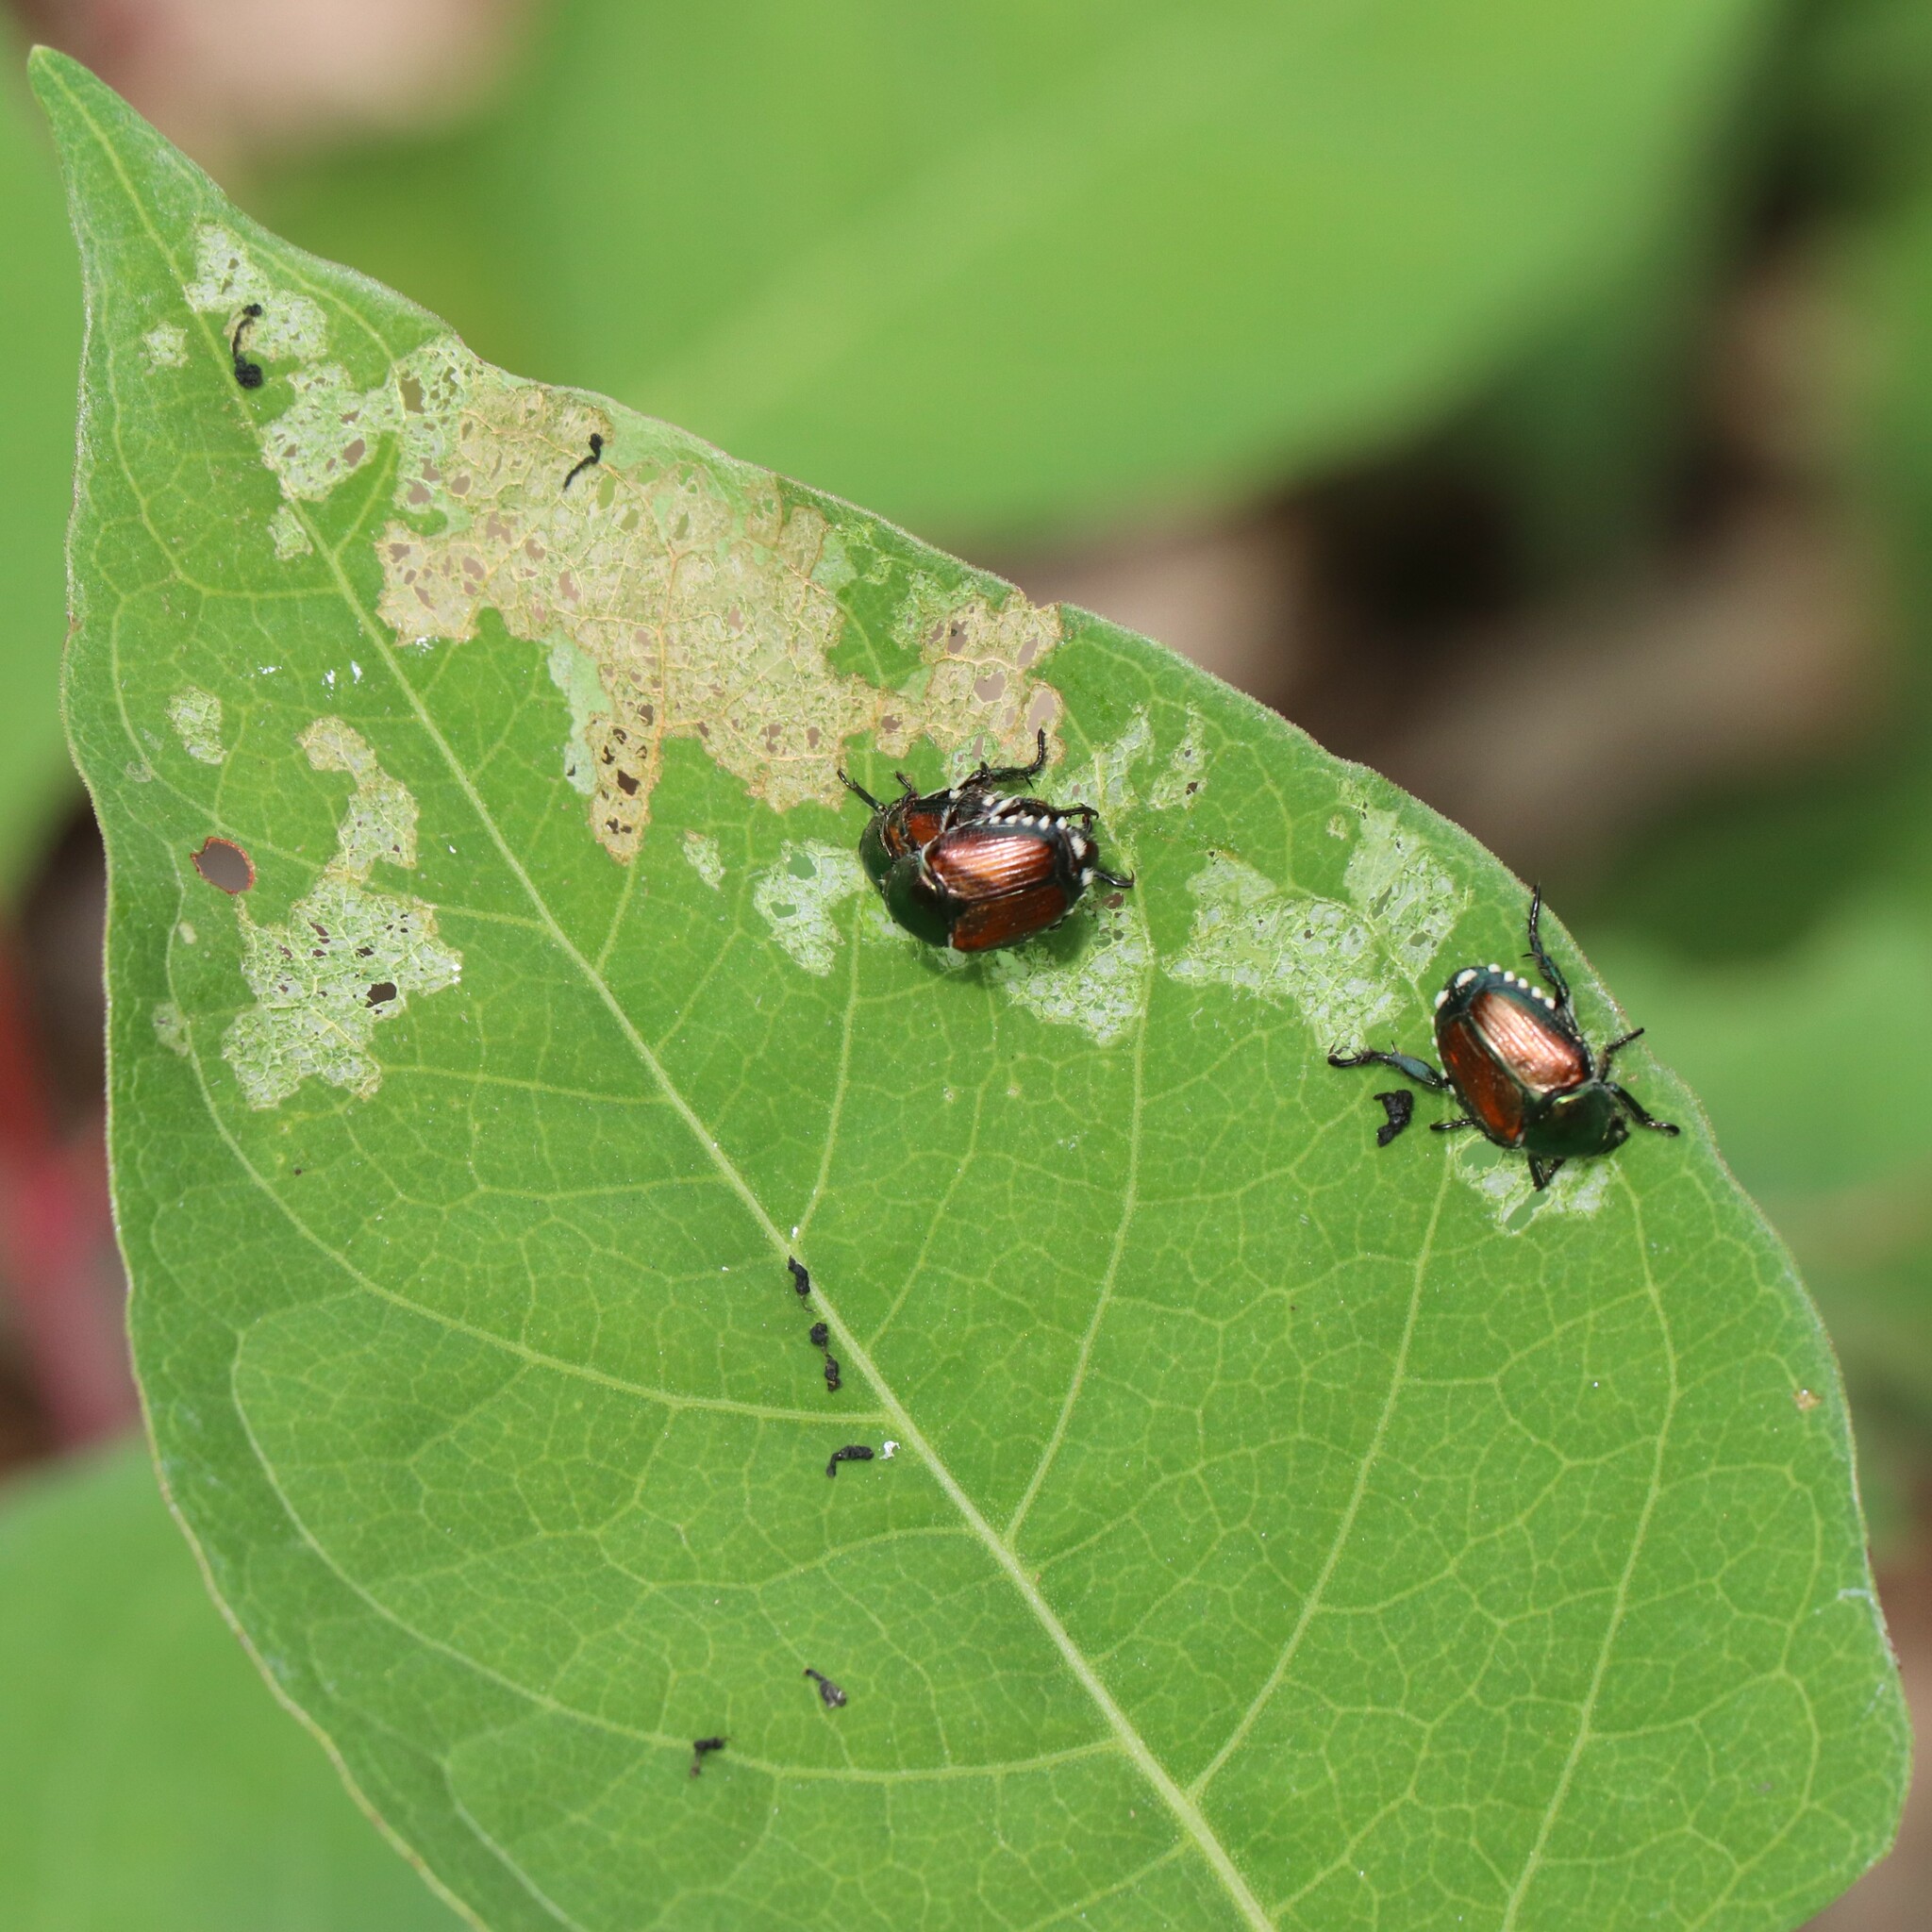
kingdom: Animalia
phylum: Arthropoda
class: Insecta
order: Coleoptera
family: Scarabaeidae
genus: Popillia
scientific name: Popillia japonica
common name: Japanese beetle
